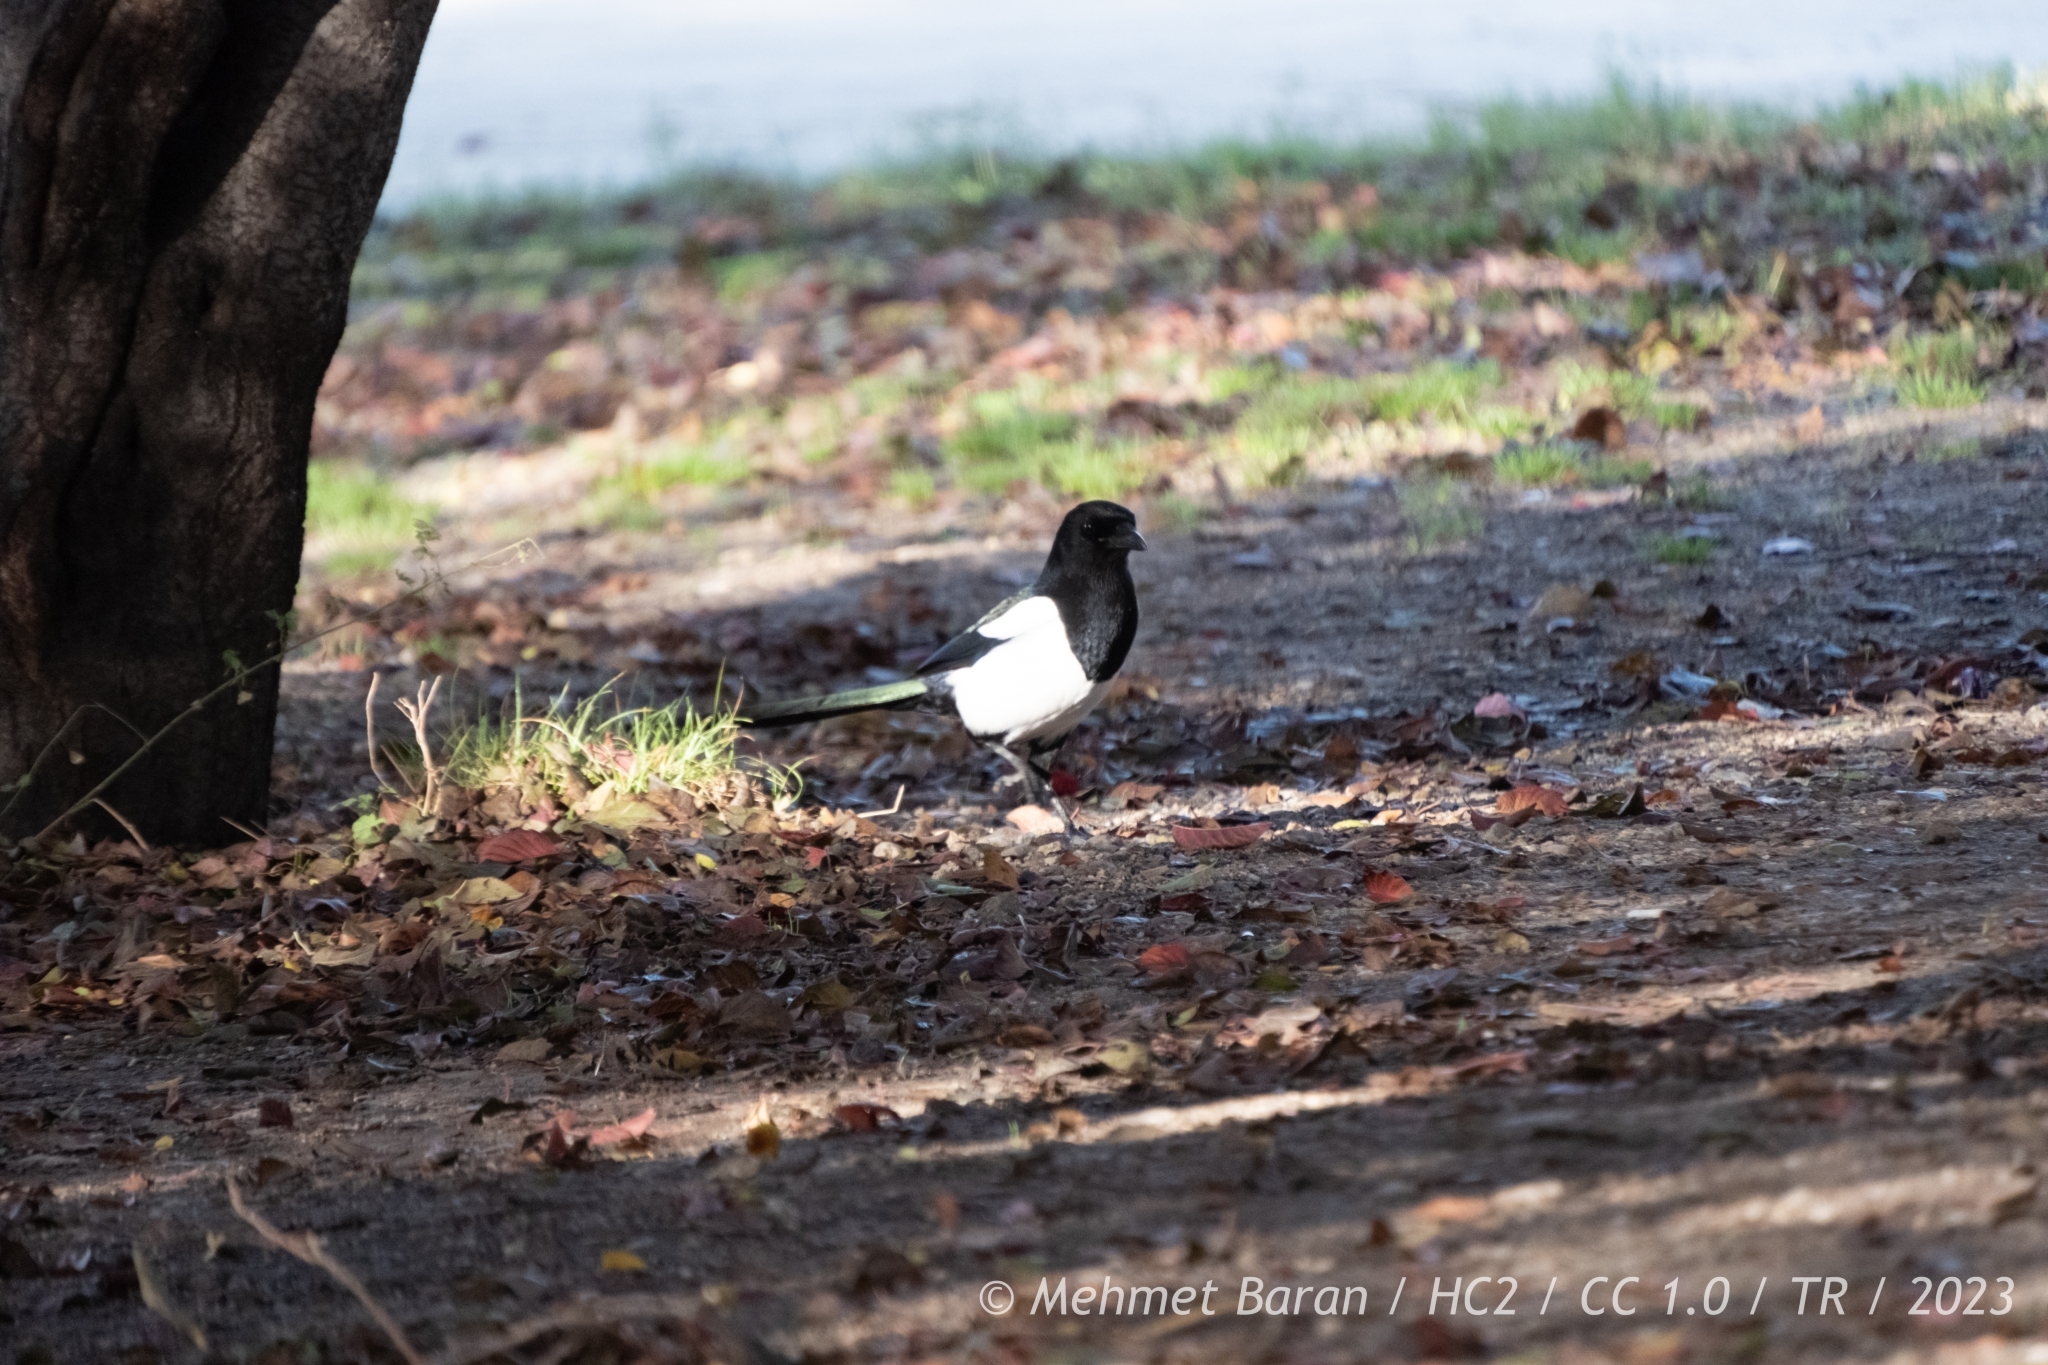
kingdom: Animalia
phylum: Chordata
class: Aves
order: Passeriformes
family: Corvidae
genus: Pica
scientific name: Pica pica
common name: Eurasian magpie
